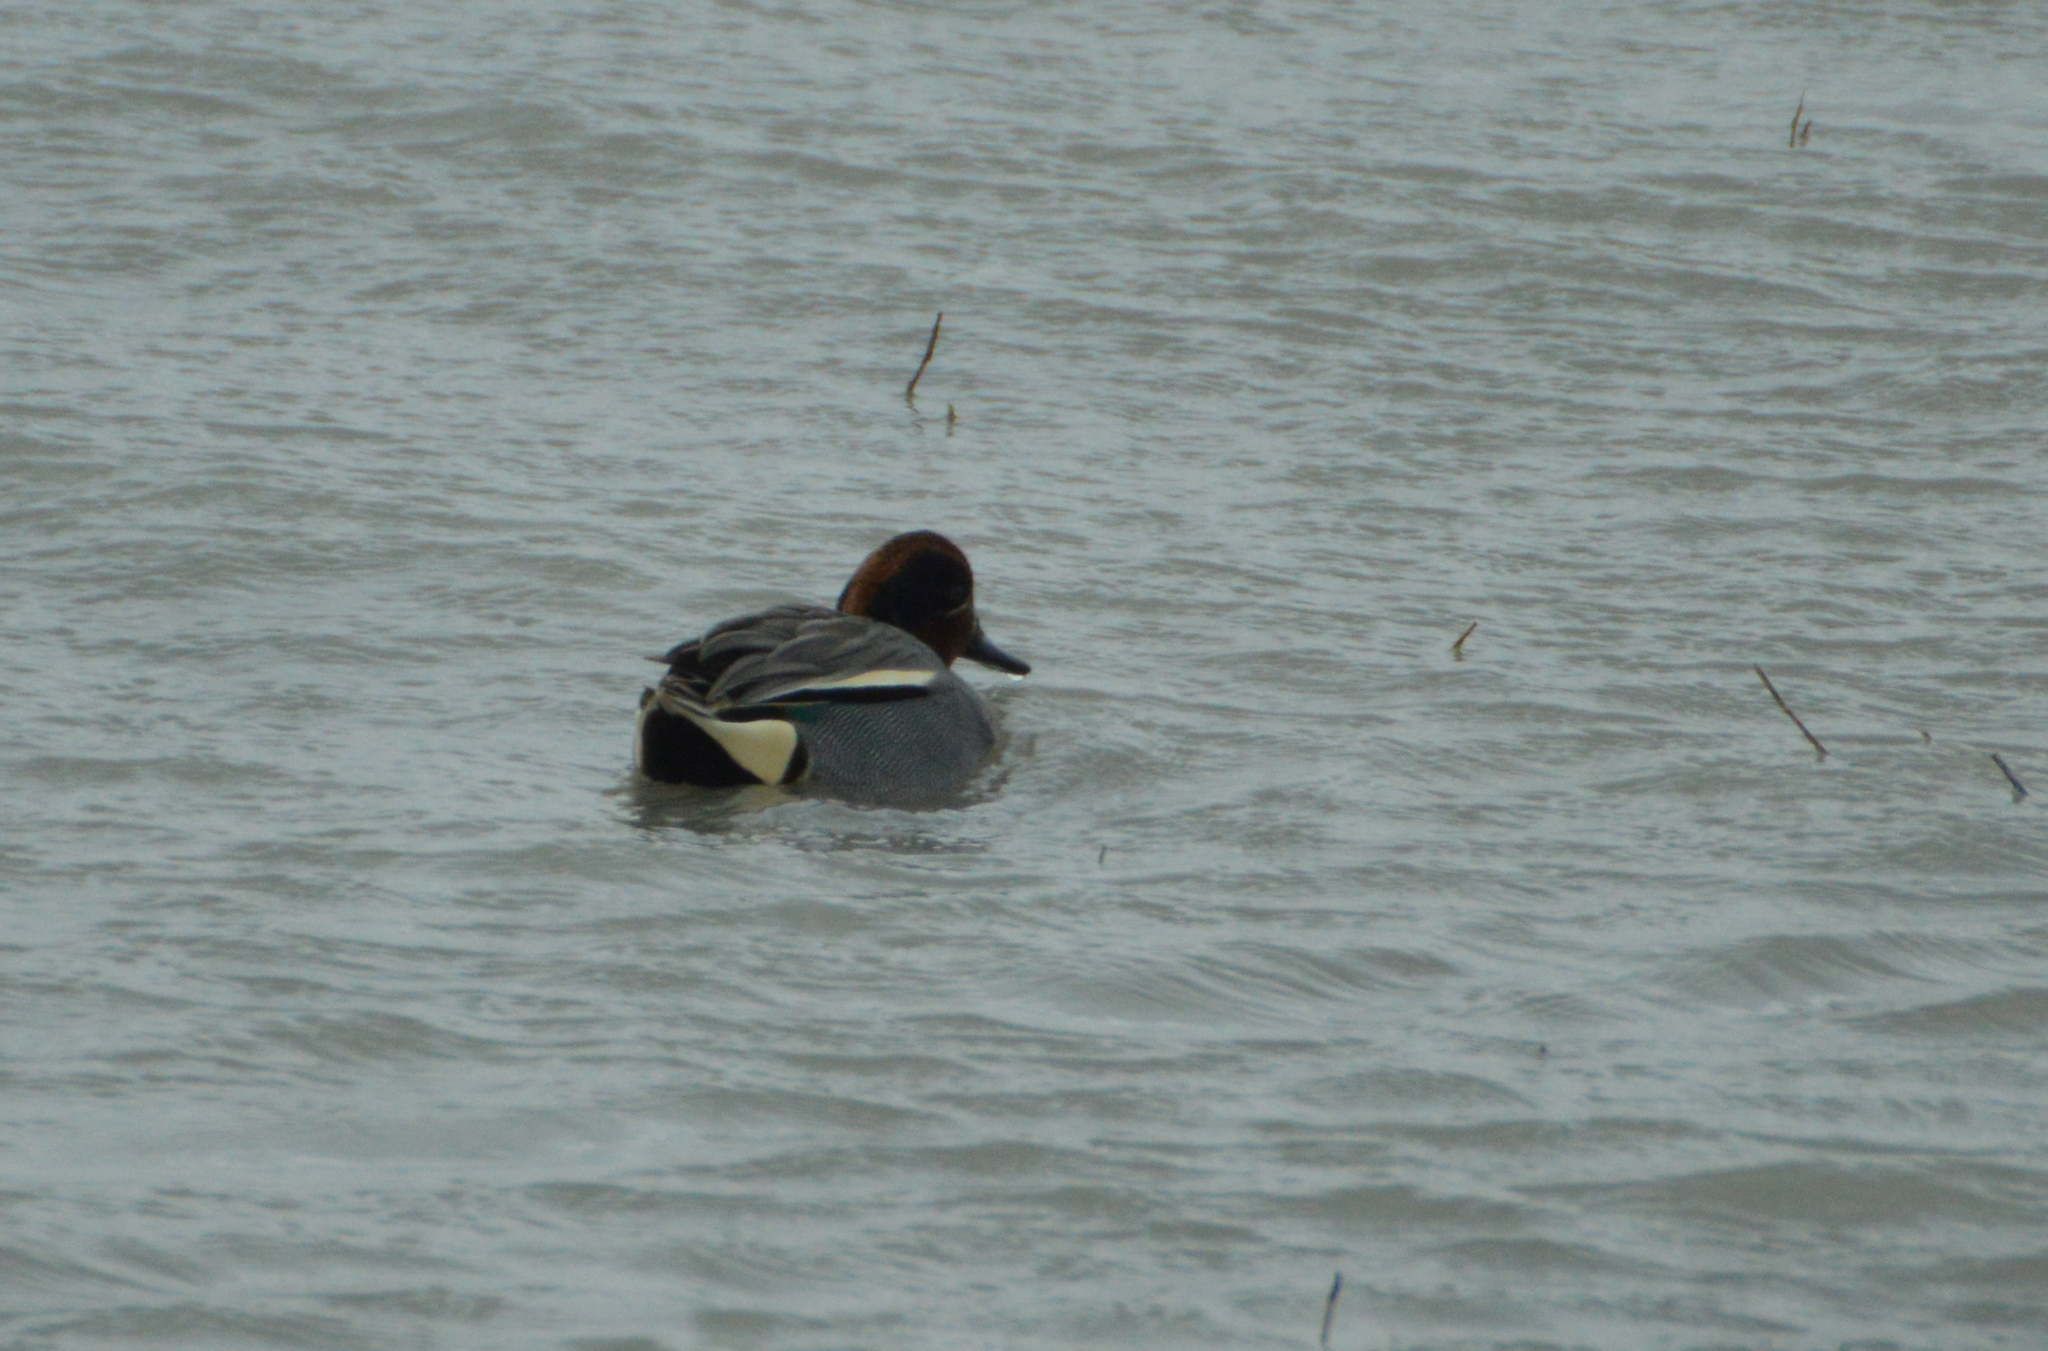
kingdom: Animalia
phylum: Chordata
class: Aves
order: Anseriformes
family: Anatidae
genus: Anas
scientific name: Anas crecca
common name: Eurasian teal
